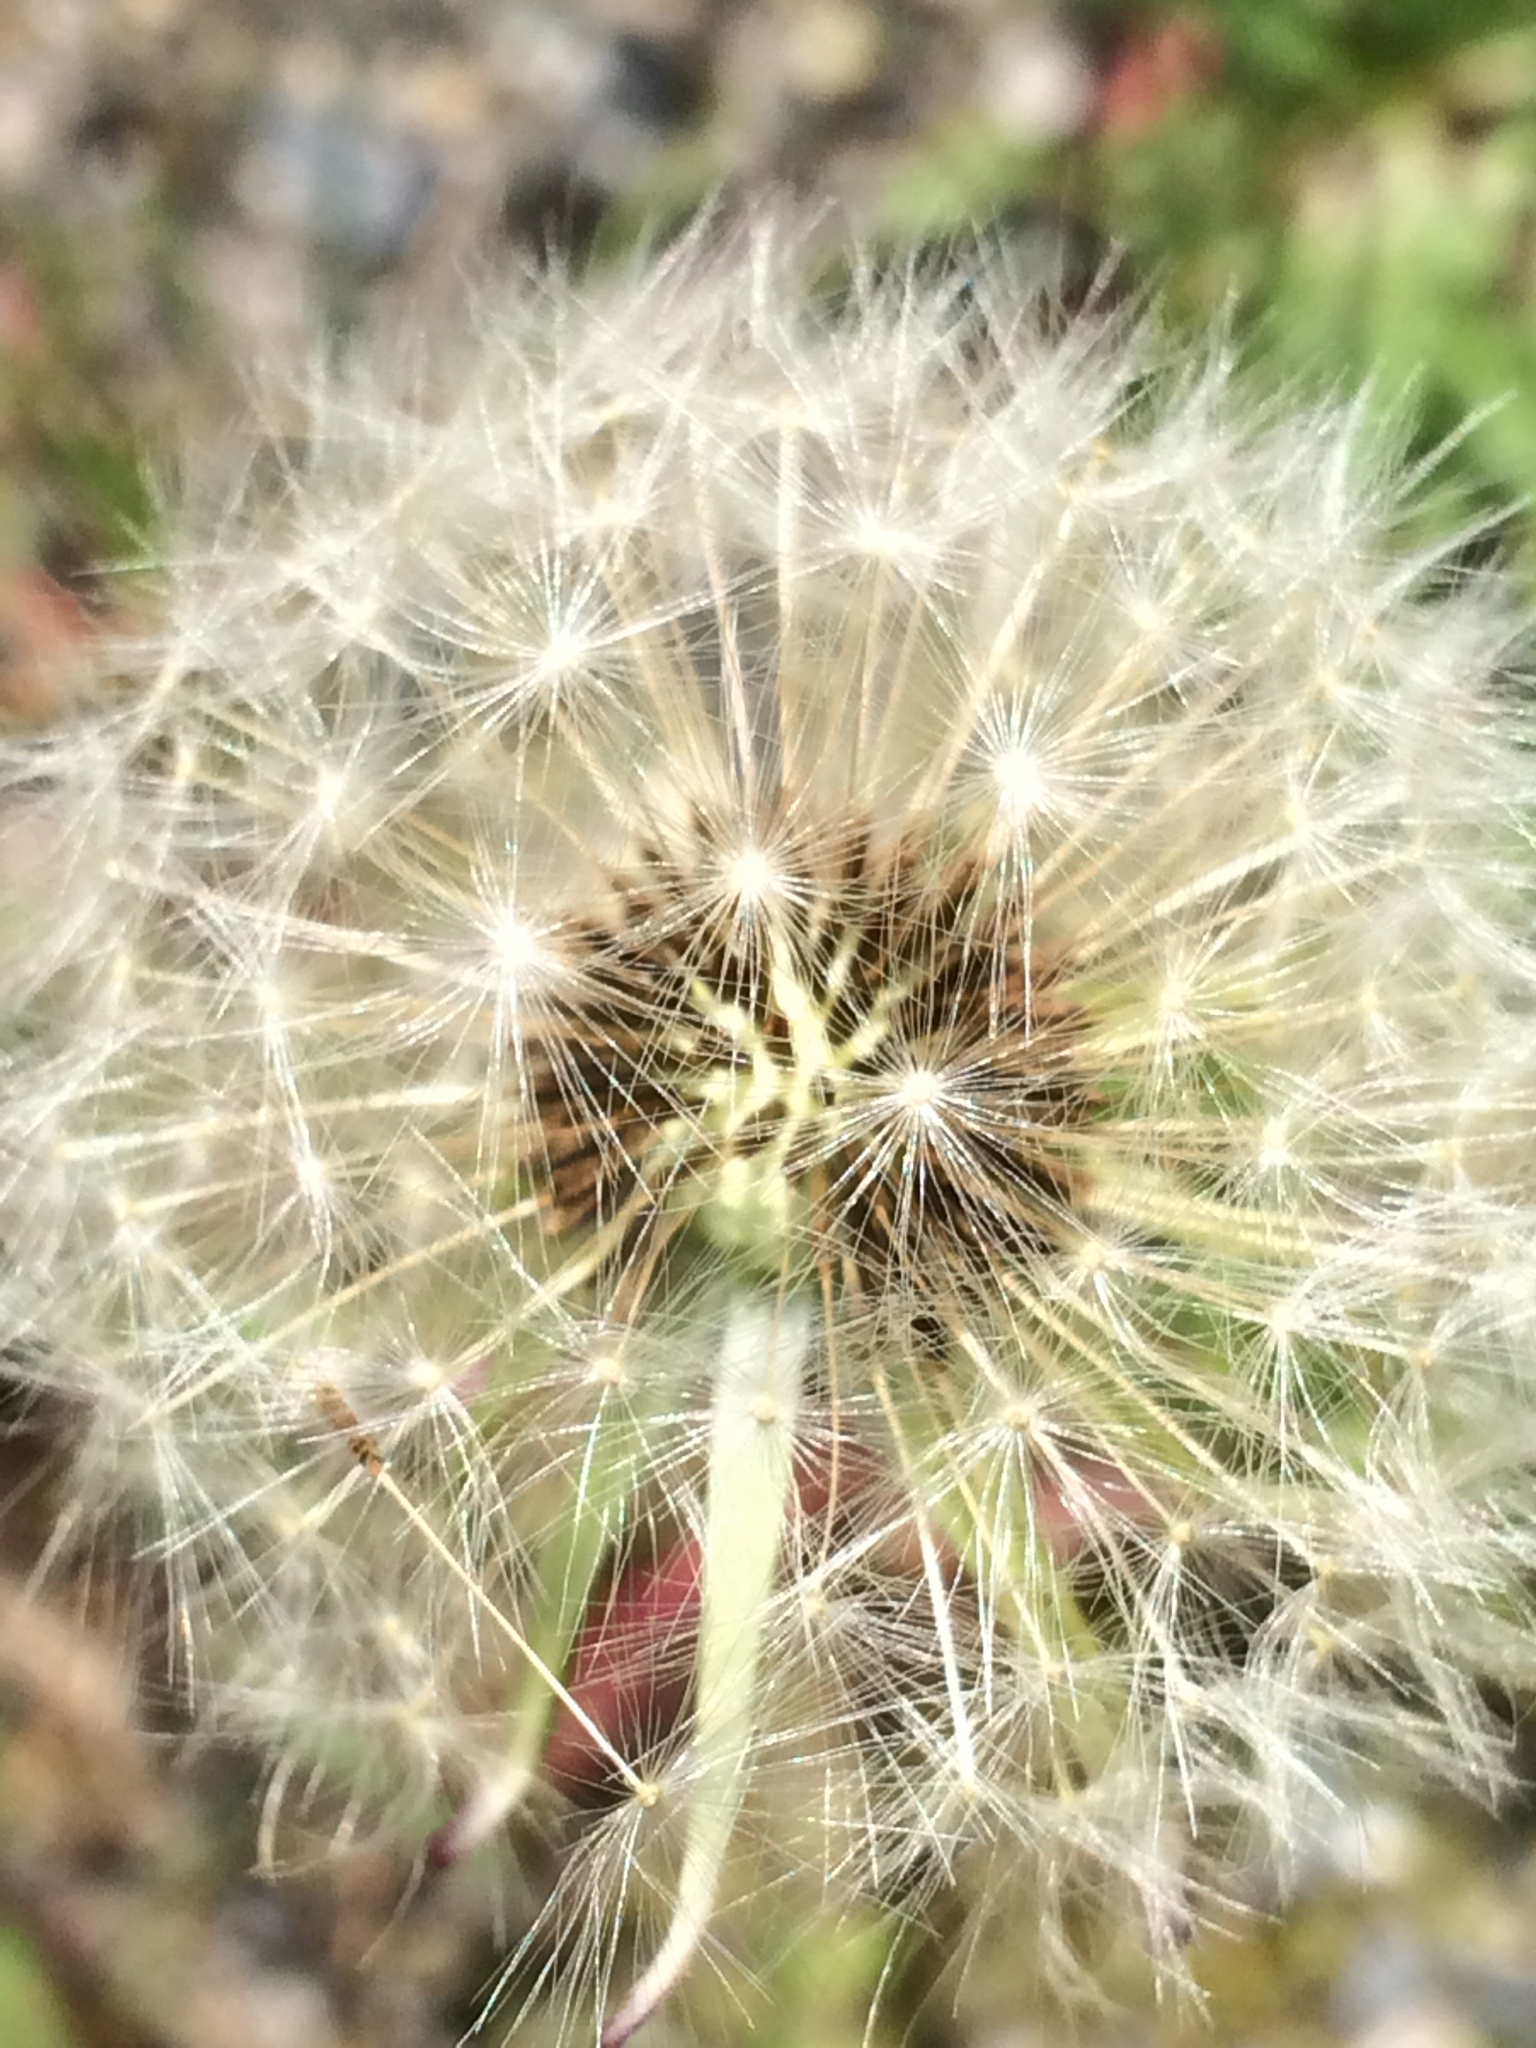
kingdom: Plantae
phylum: Tracheophyta
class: Magnoliopsida
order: Asterales
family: Asteraceae
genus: Taraxacum
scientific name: Taraxacum officinale
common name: Common dandelion
